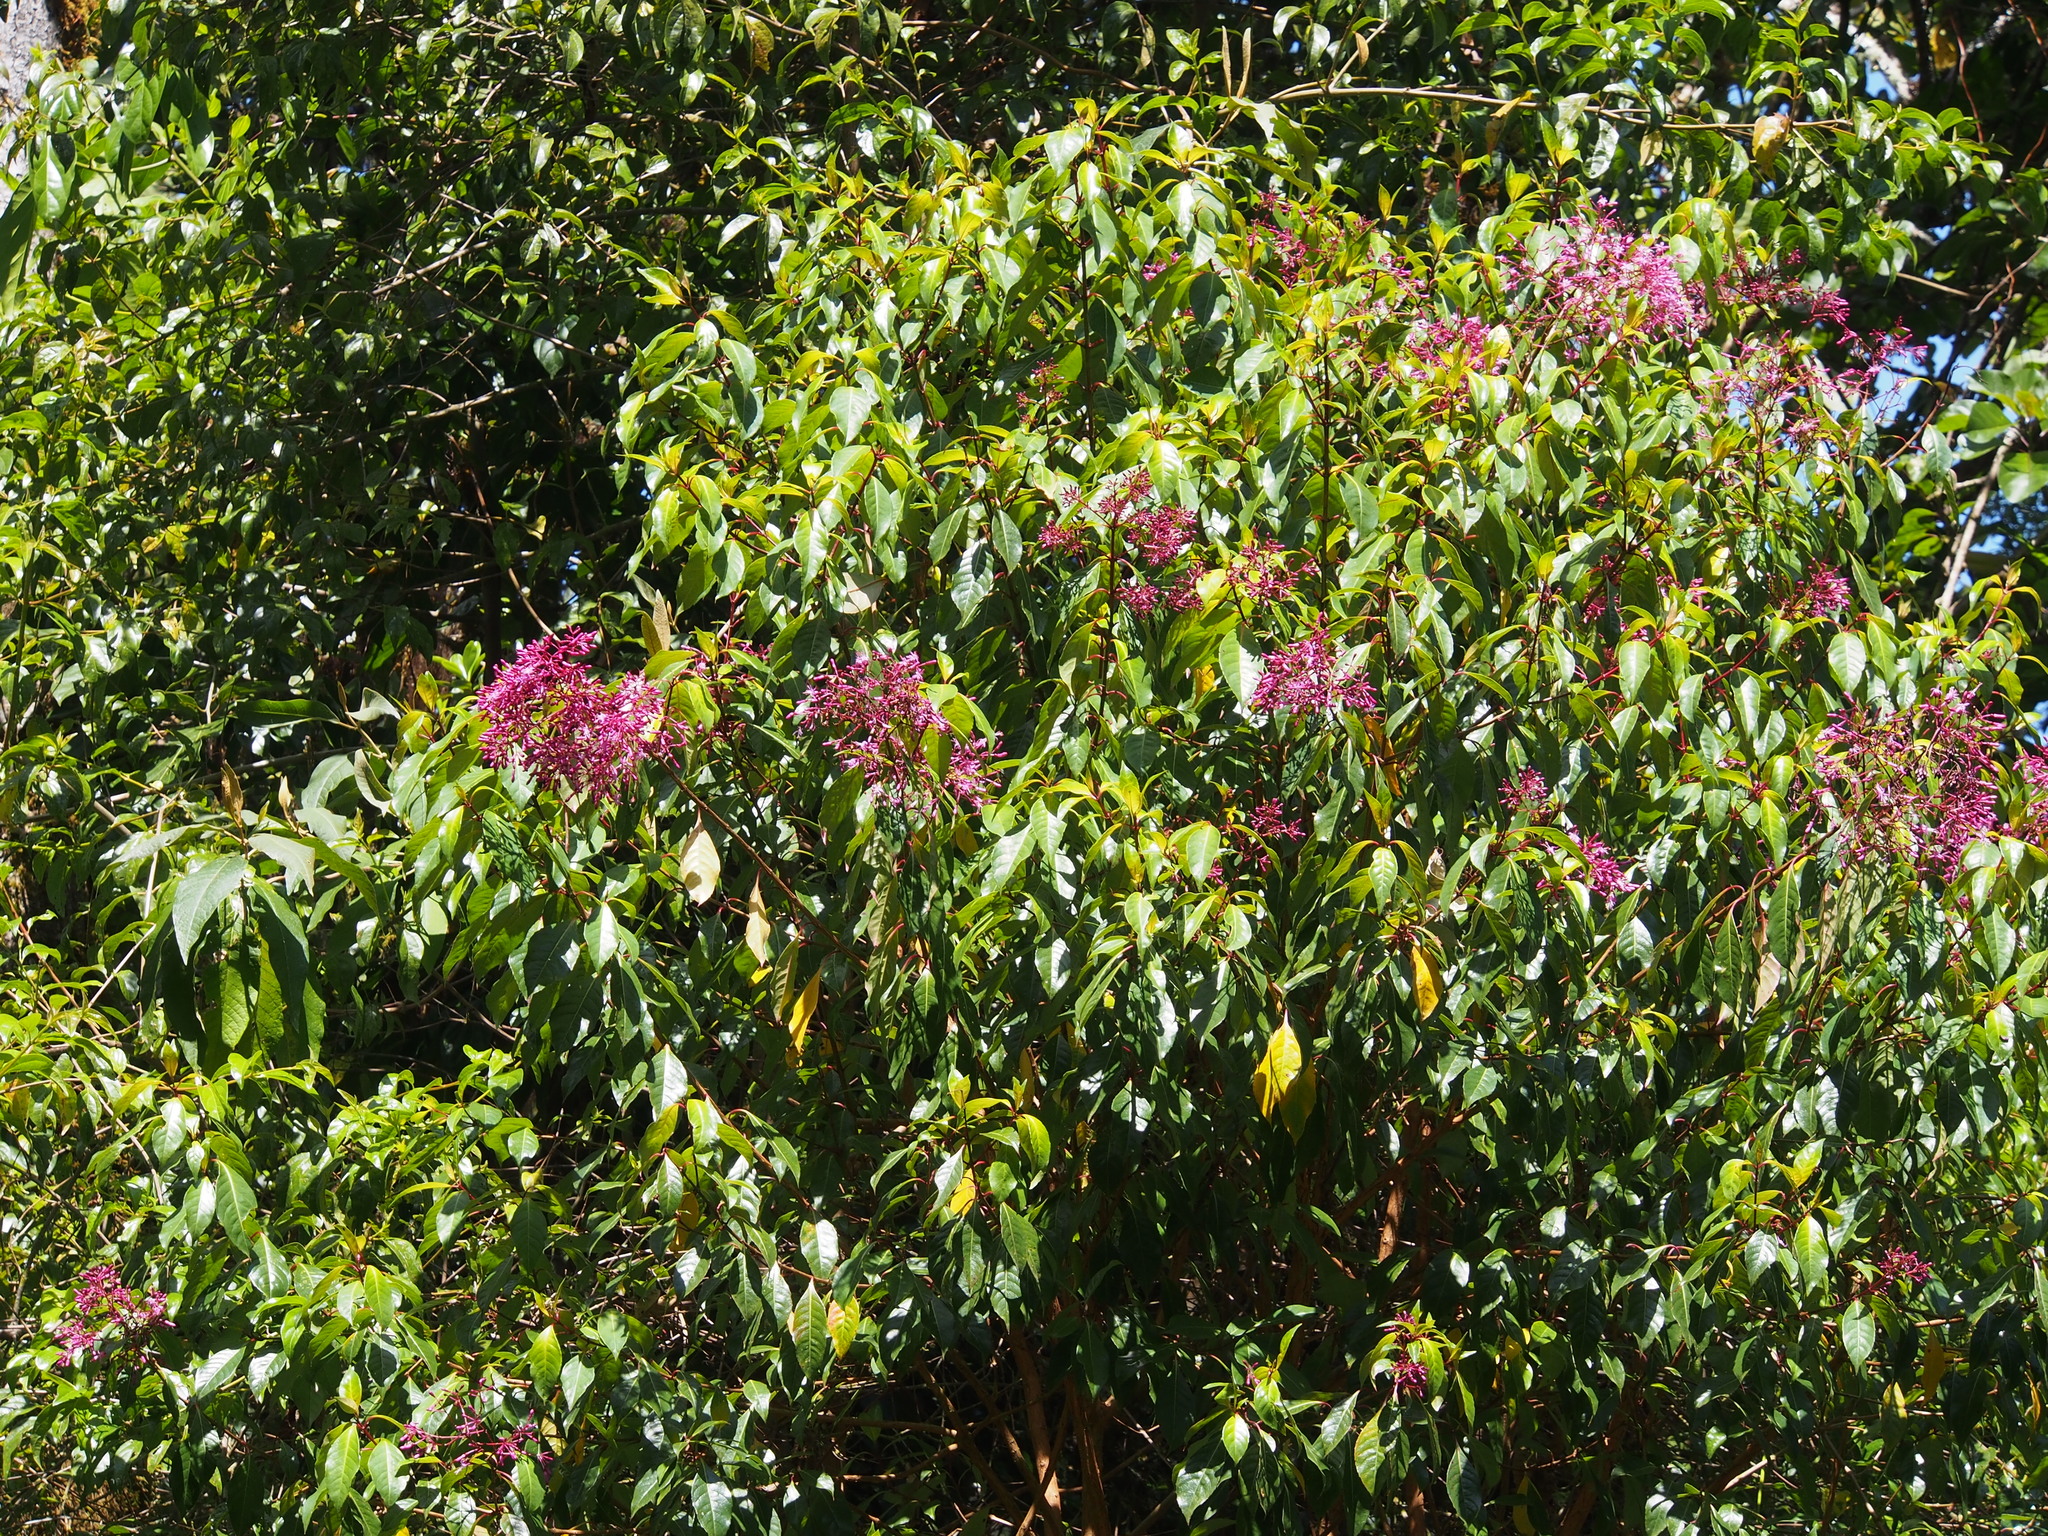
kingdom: Plantae
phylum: Tracheophyta
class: Magnoliopsida
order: Myrtales
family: Onagraceae
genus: Fuchsia
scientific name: Fuchsia paniculata
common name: Shrubby fuchsia
